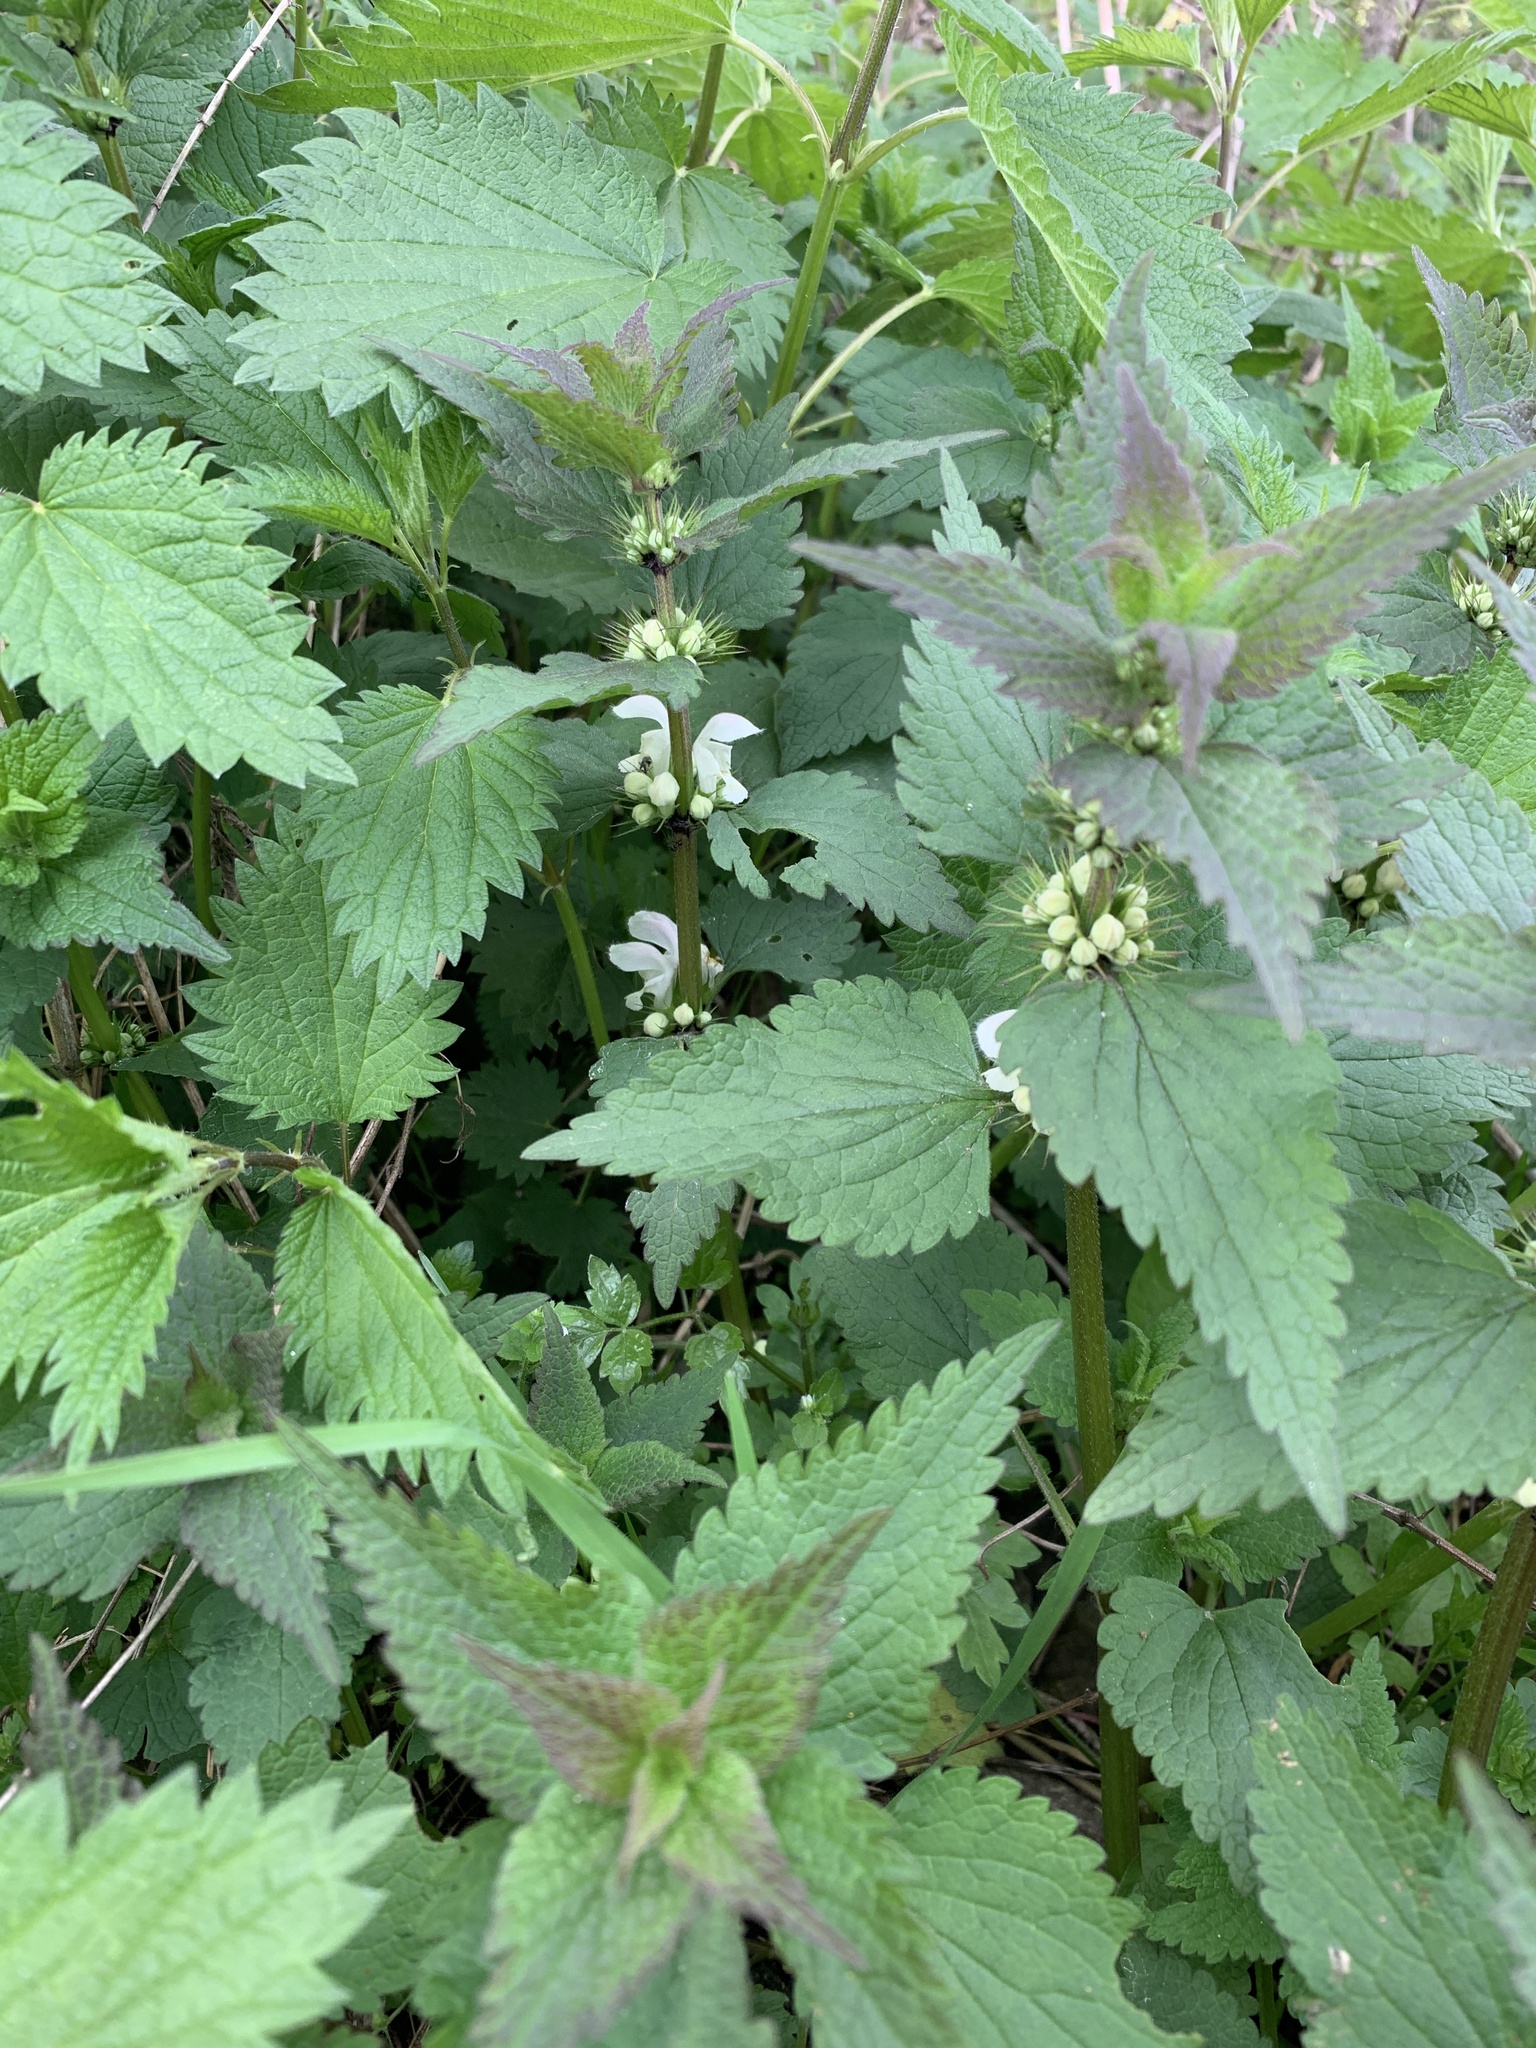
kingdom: Plantae
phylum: Tracheophyta
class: Magnoliopsida
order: Lamiales
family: Lamiaceae
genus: Lamium
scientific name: Lamium album
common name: White dead-nettle
